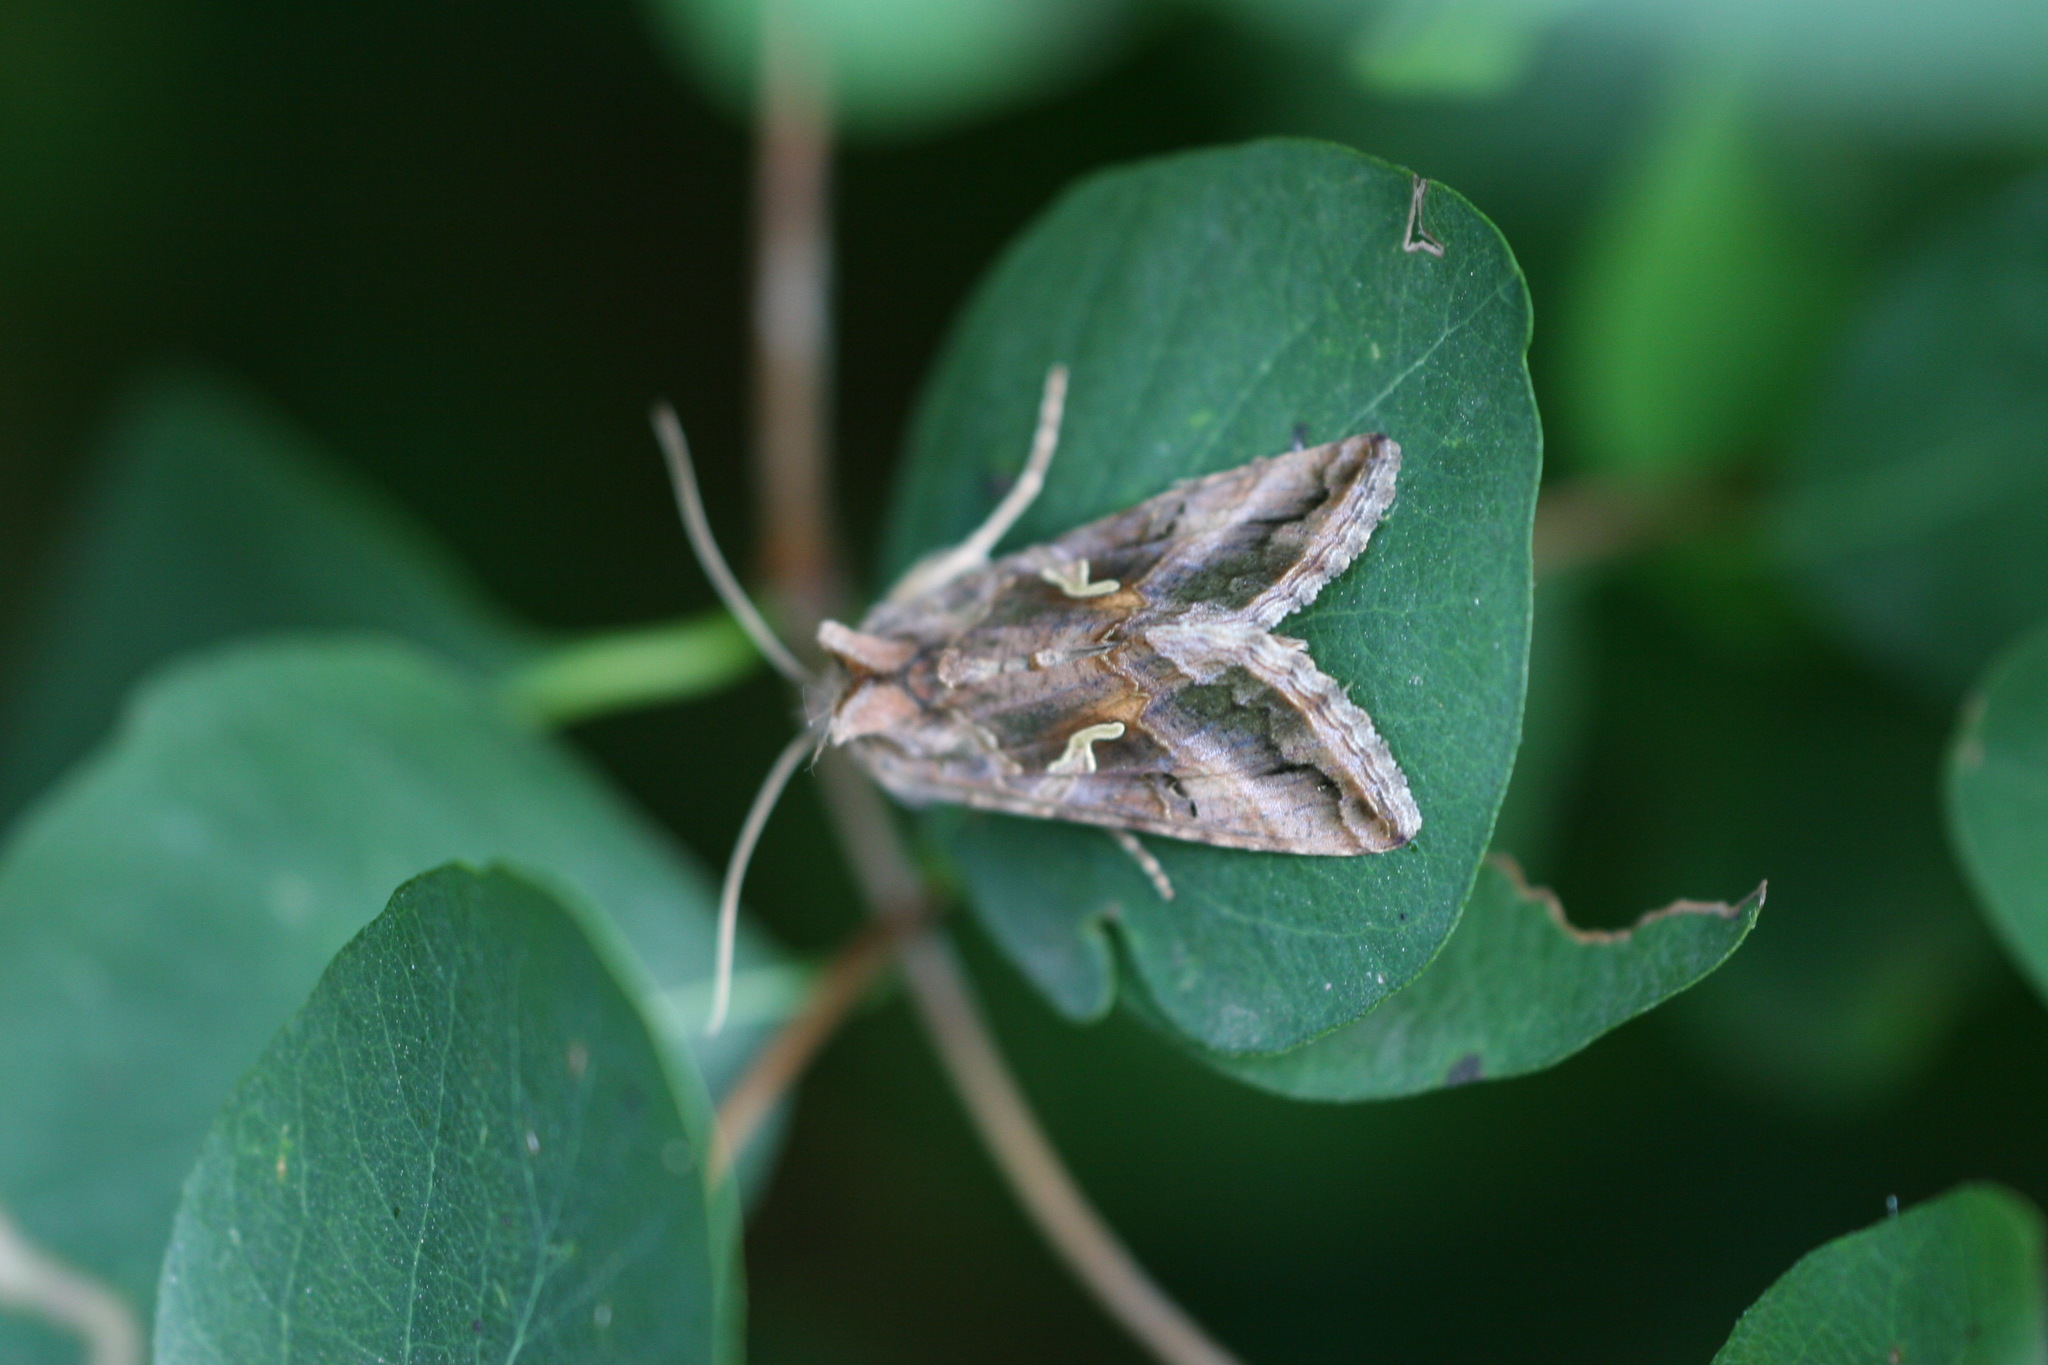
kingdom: Animalia
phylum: Arthropoda
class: Insecta
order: Lepidoptera
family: Noctuidae
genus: Autographa
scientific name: Autographa gamma
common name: Silver y
